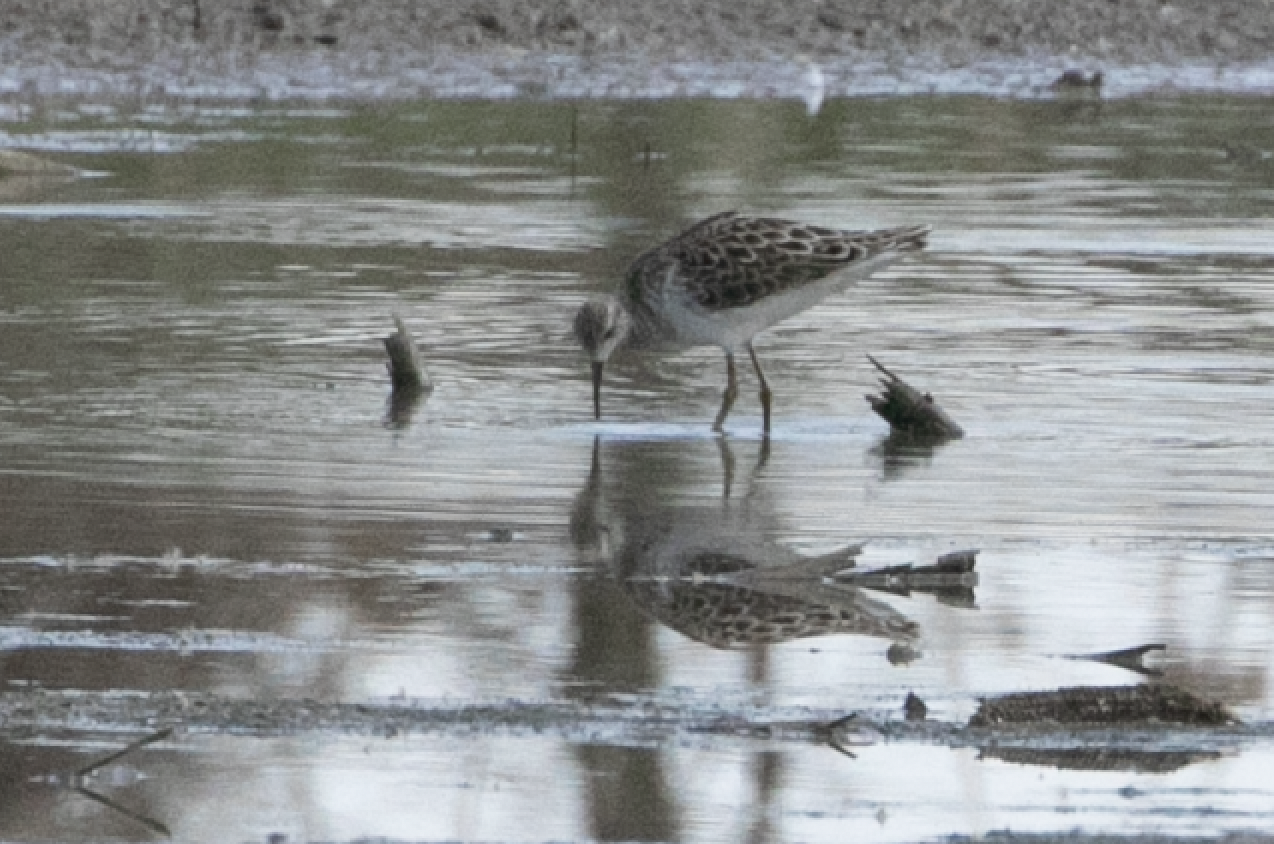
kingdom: Animalia
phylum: Chordata
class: Aves
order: Charadriiformes
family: Scolopacidae
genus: Calidris
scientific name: Calidris pugnax
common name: Ruff
